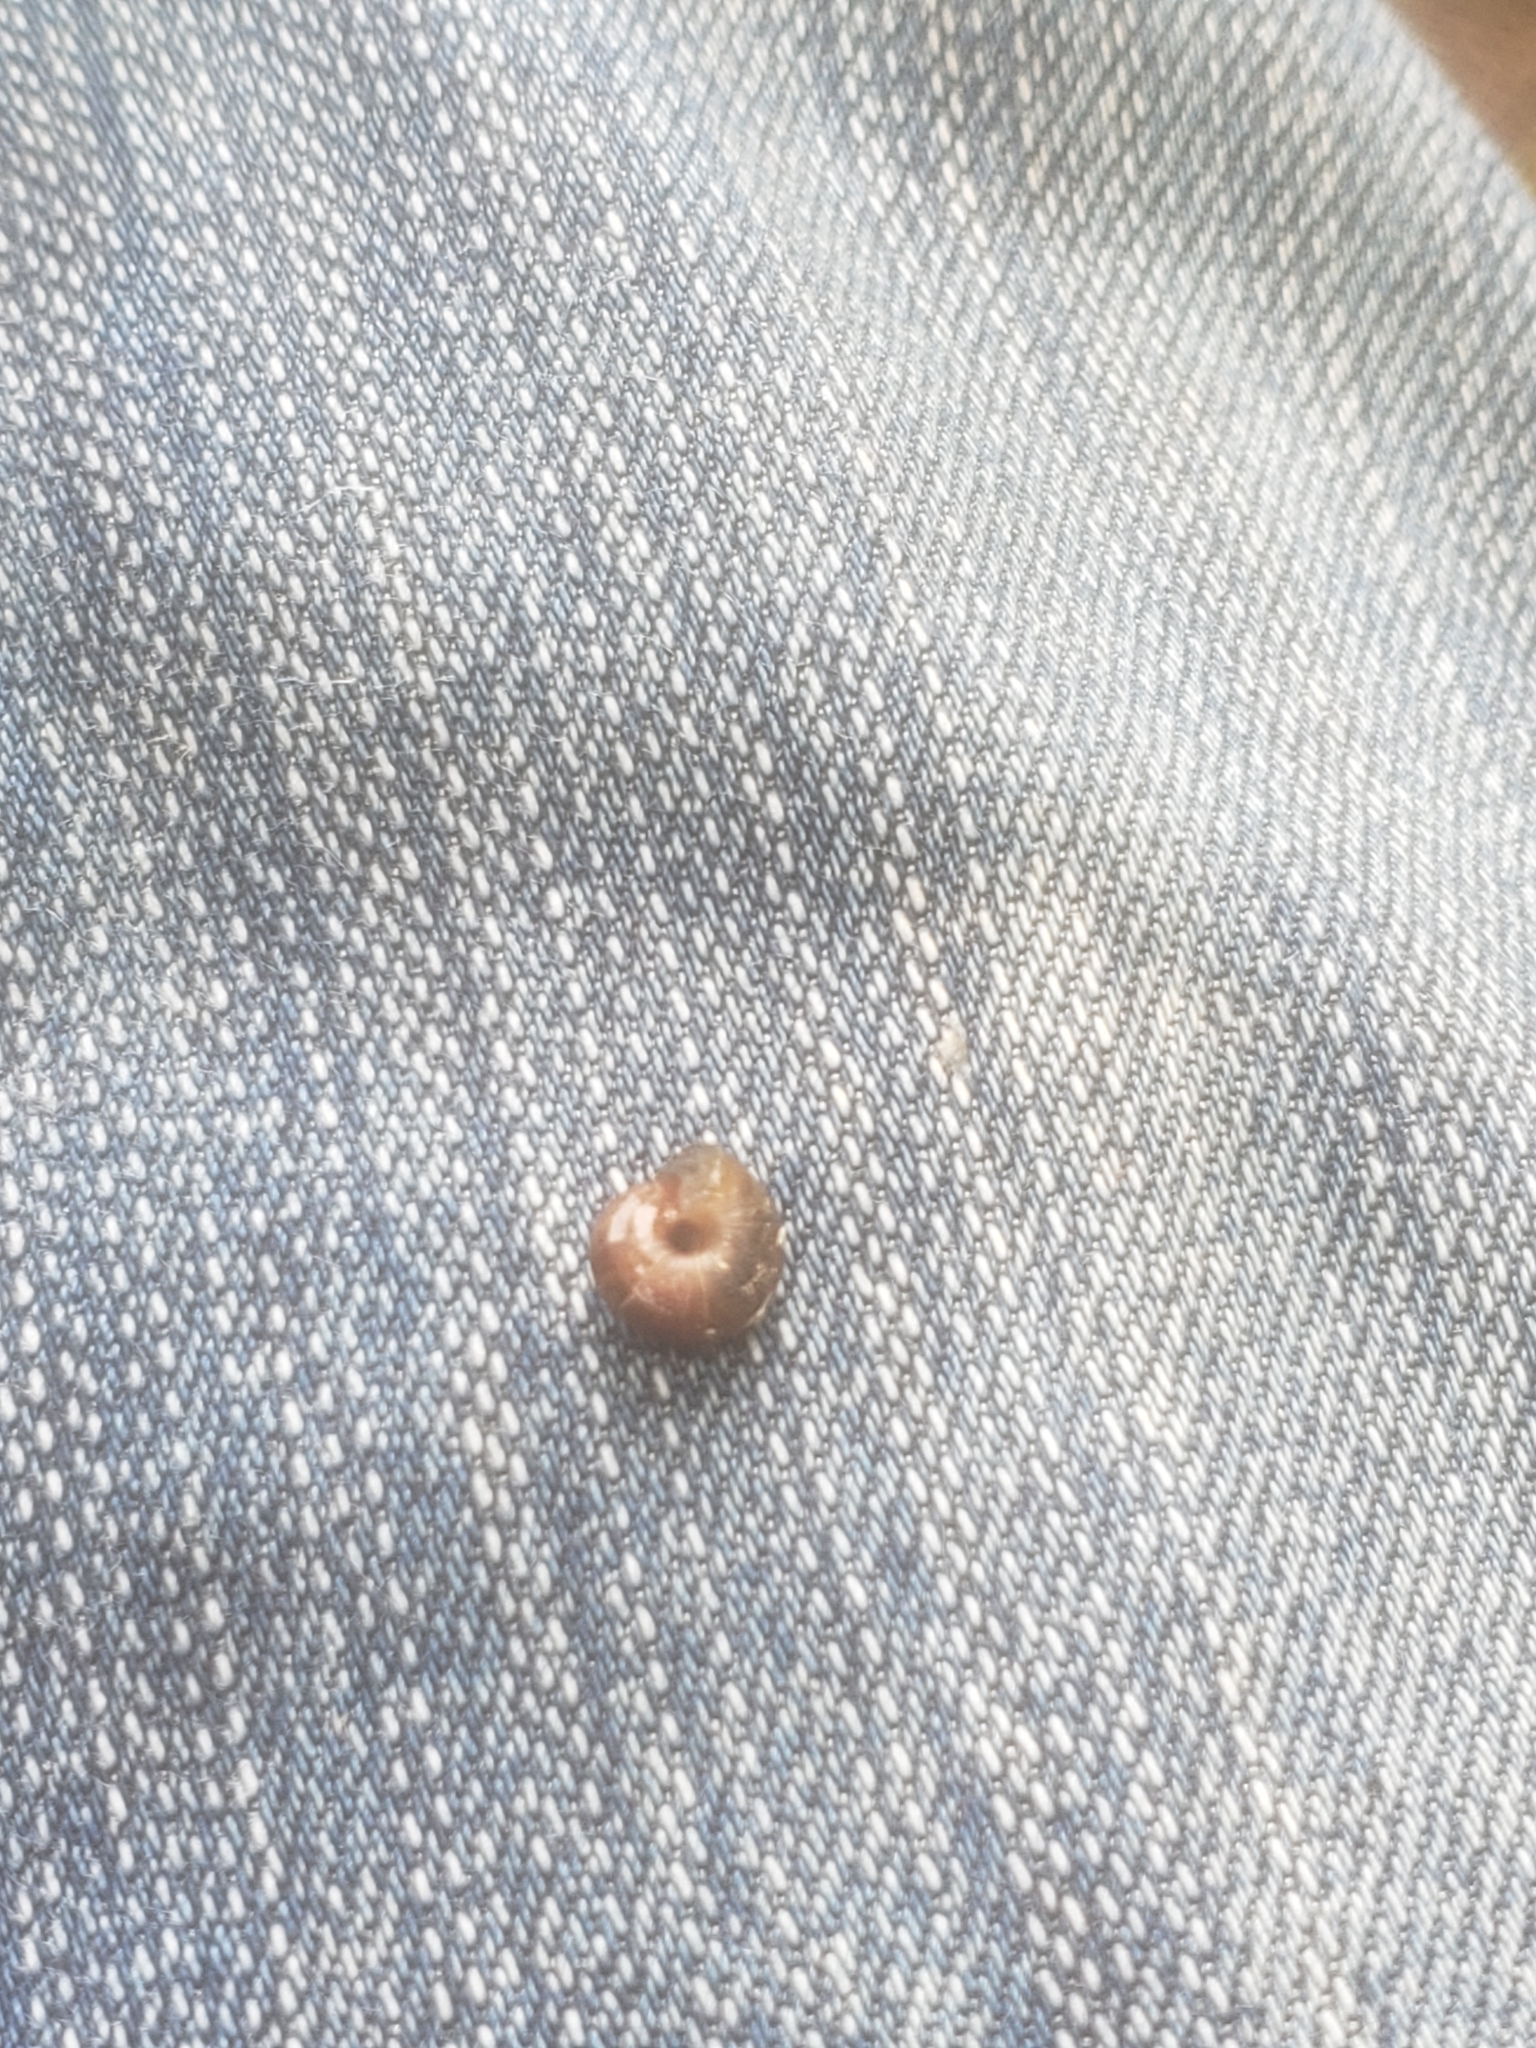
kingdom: Animalia
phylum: Mollusca
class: Gastropoda
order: Stylommatophora
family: Hygromiidae
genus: Trochulus
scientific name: Trochulus hispidus
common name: Hairy snail
